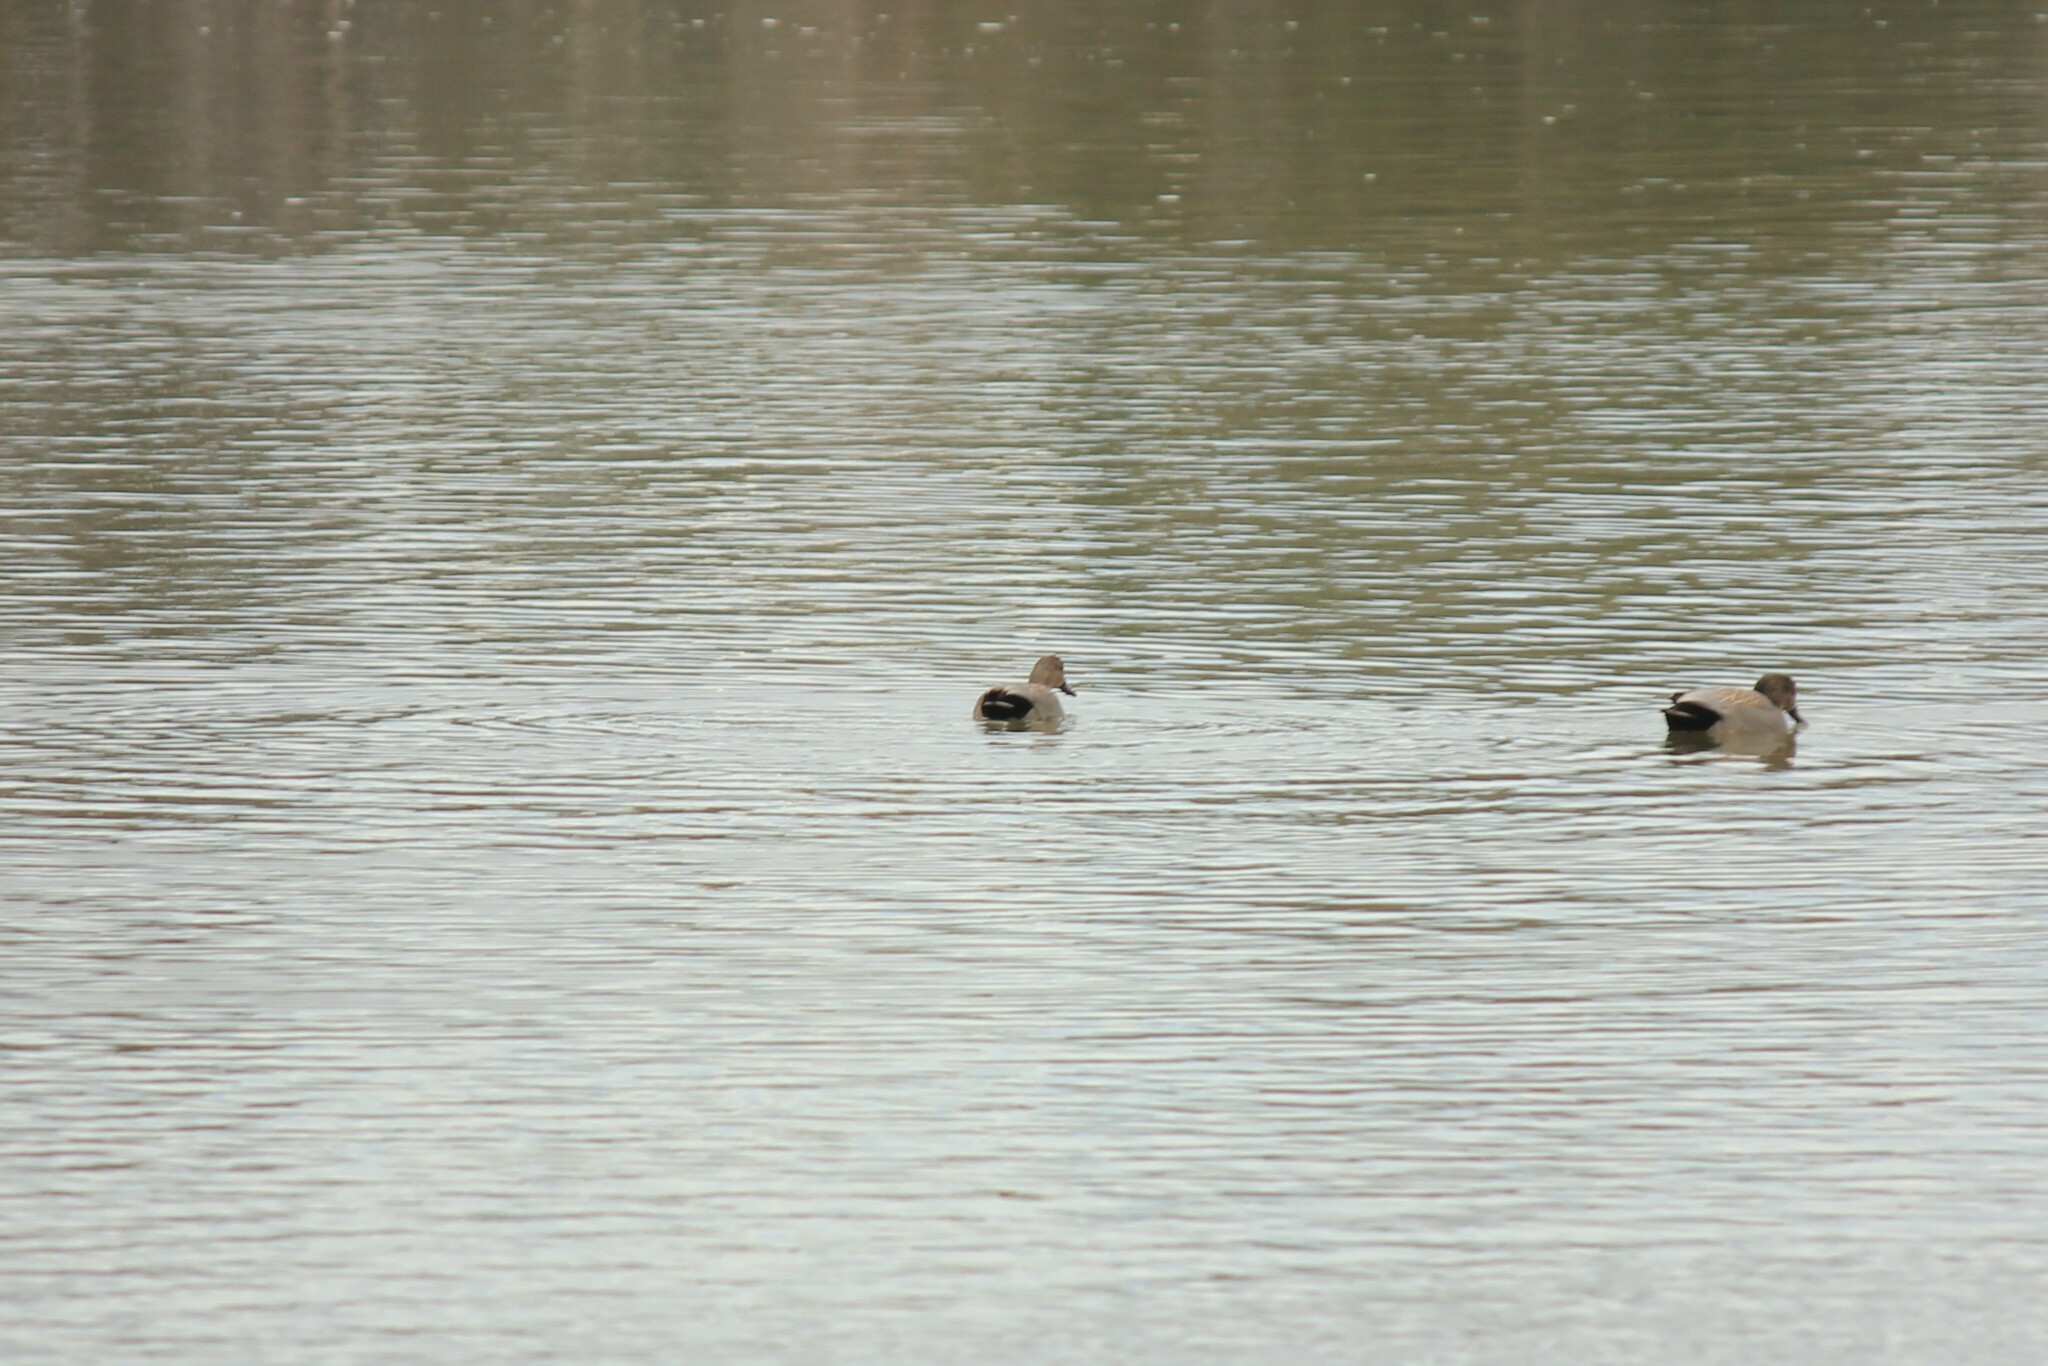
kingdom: Animalia
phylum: Chordata
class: Aves
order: Anseriformes
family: Anatidae
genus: Mareca
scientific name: Mareca strepera
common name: Gadwall
